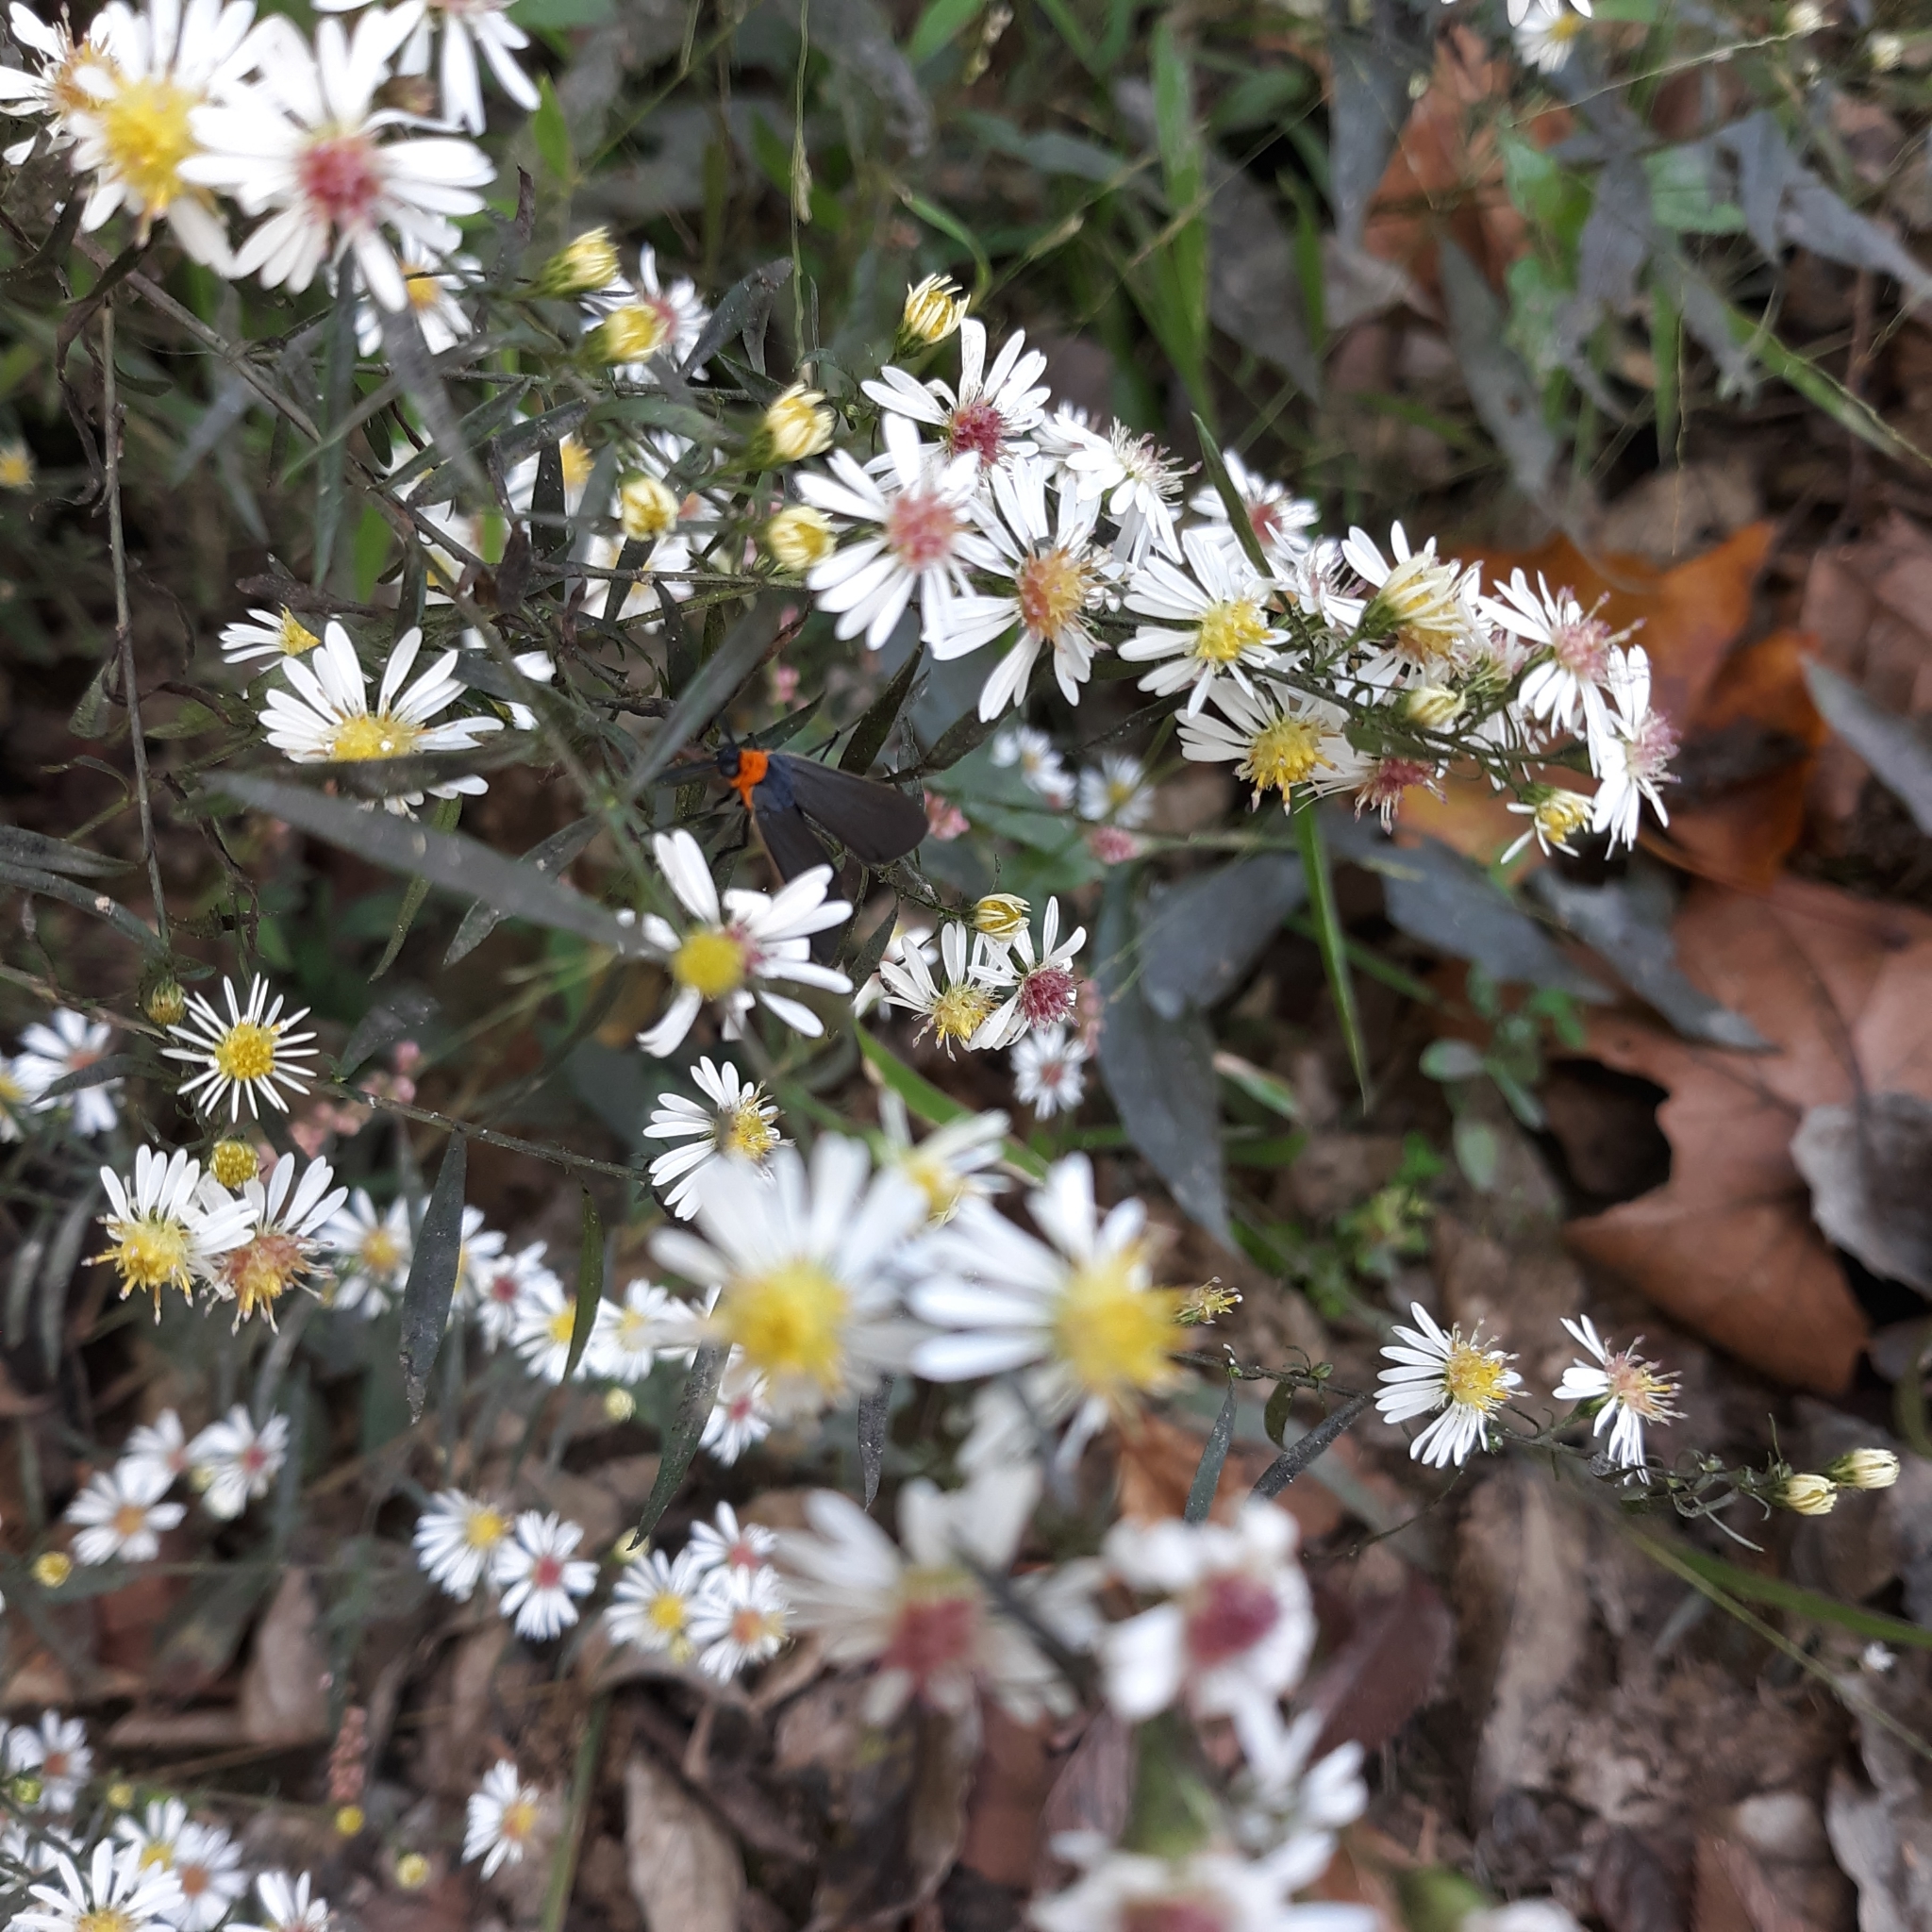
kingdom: Plantae
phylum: Tracheophyta
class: Magnoliopsida
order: Asterales
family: Asteraceae
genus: Symphyotrichum
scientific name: Symphyotrichum lateriflorum
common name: Calico aster
